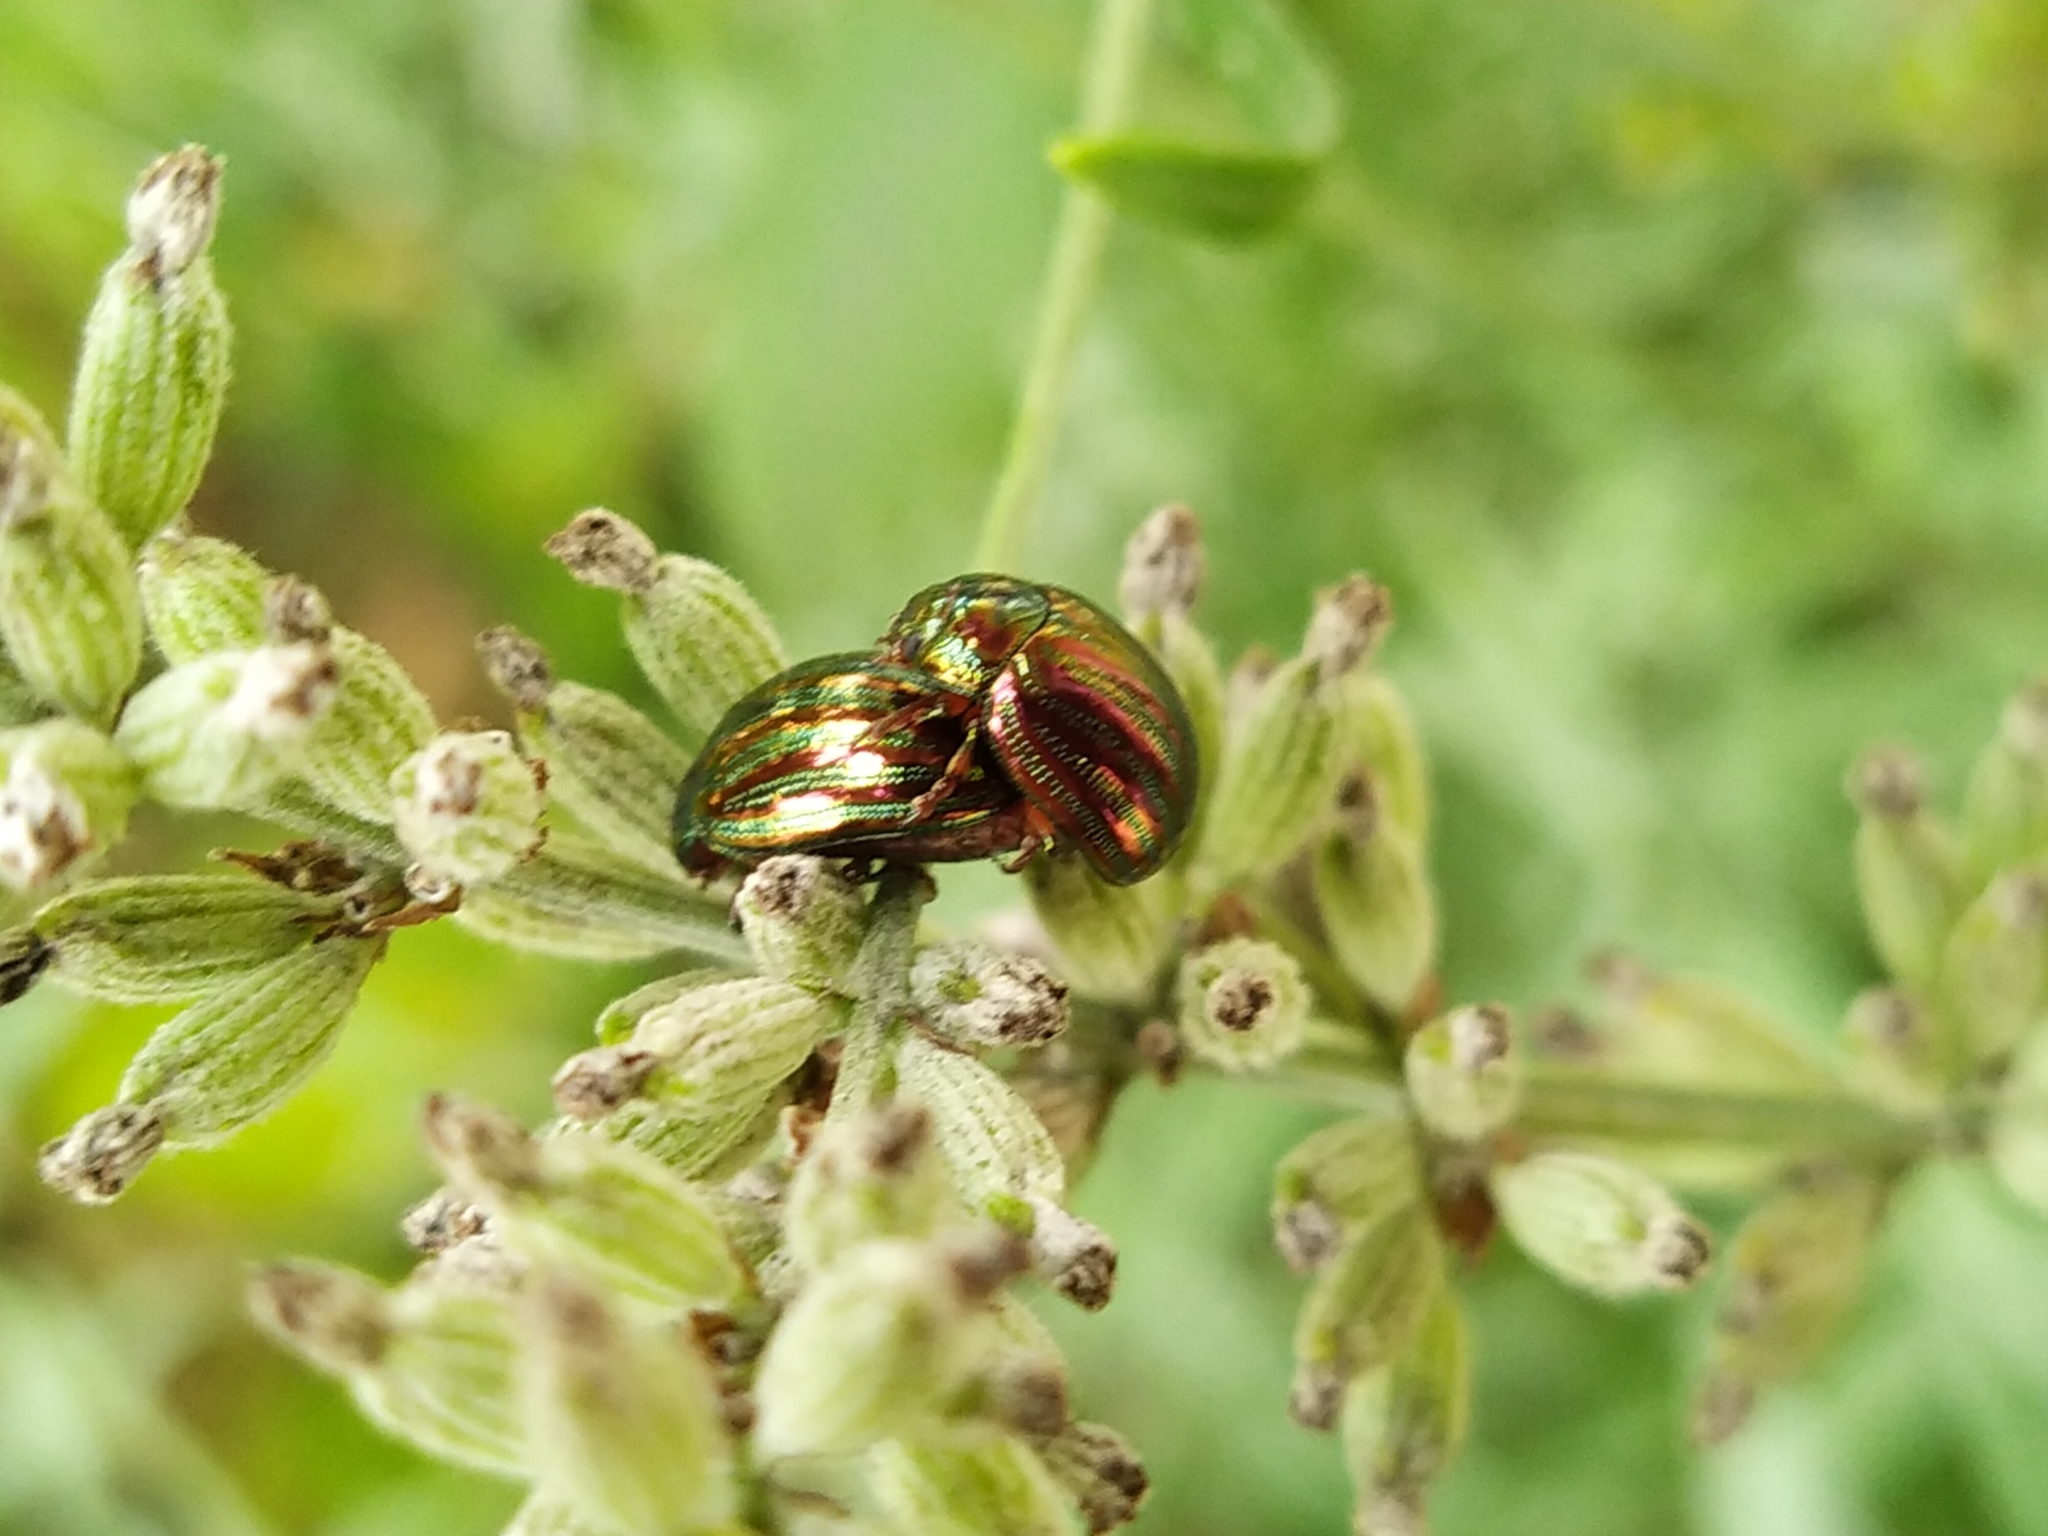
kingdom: Animalia
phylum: Arthropoda
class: Insecta
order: Coleoptera
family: Chrysomelidae
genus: Chrysolina
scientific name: Chrysolina americana
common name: Rosemary beetle
